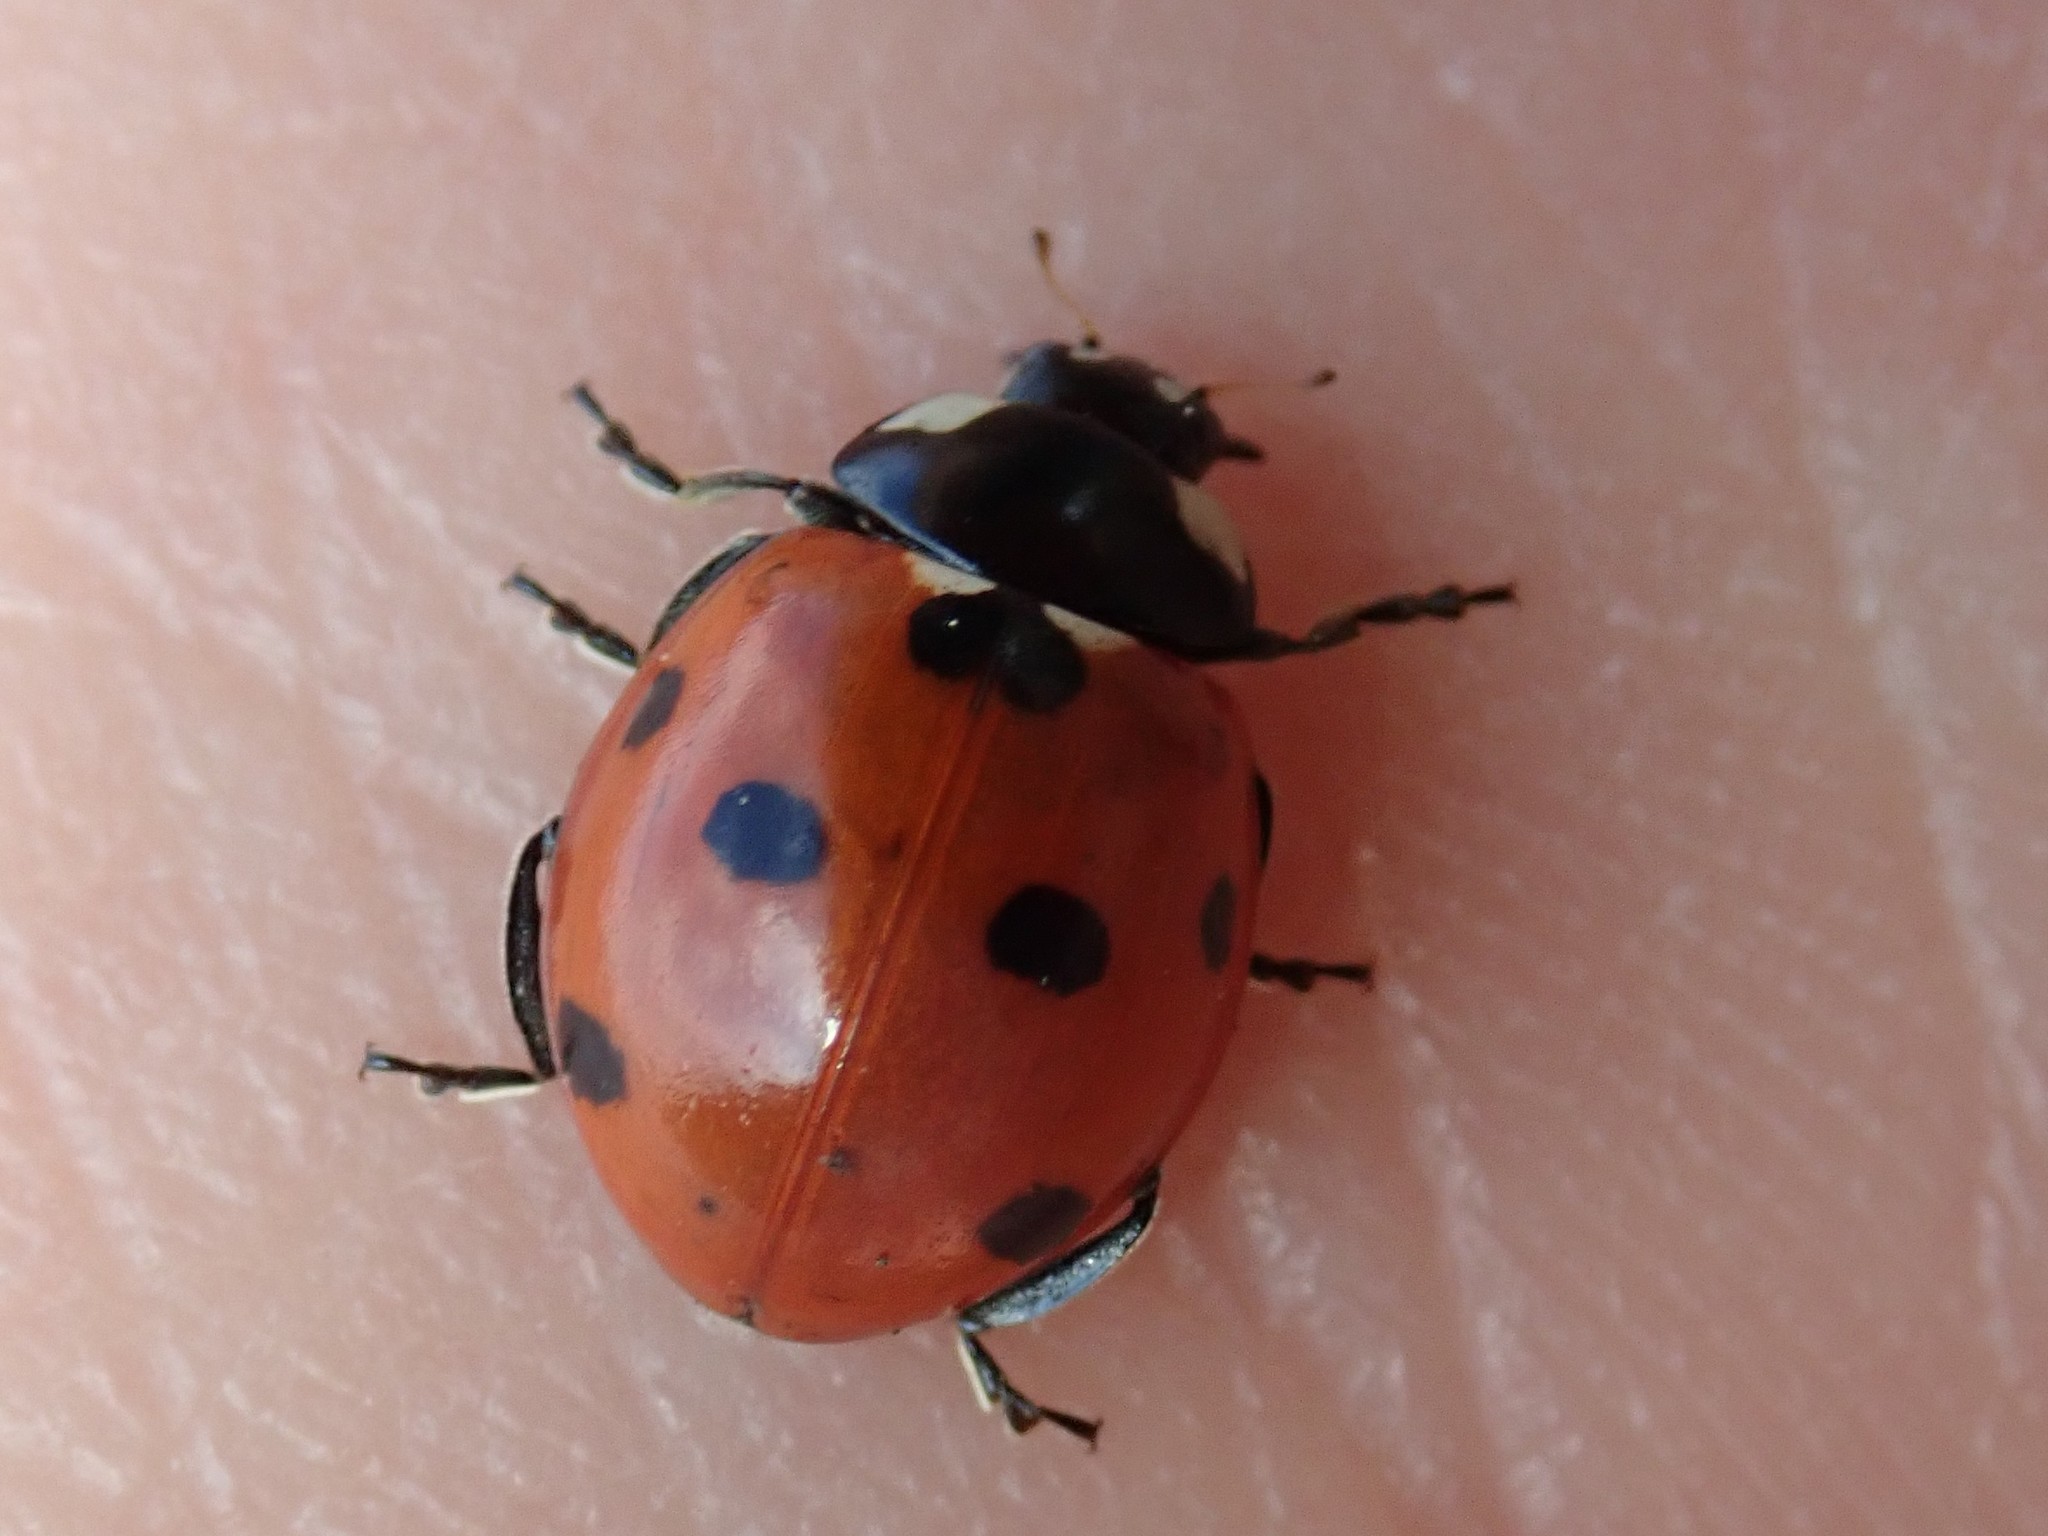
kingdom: Animalia
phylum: Arthropoda
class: Insecta
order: Coleoptera
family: Coccinellidae
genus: Coccinella
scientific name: Coccinella septempunctata
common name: Sevenspotted lady beetle
